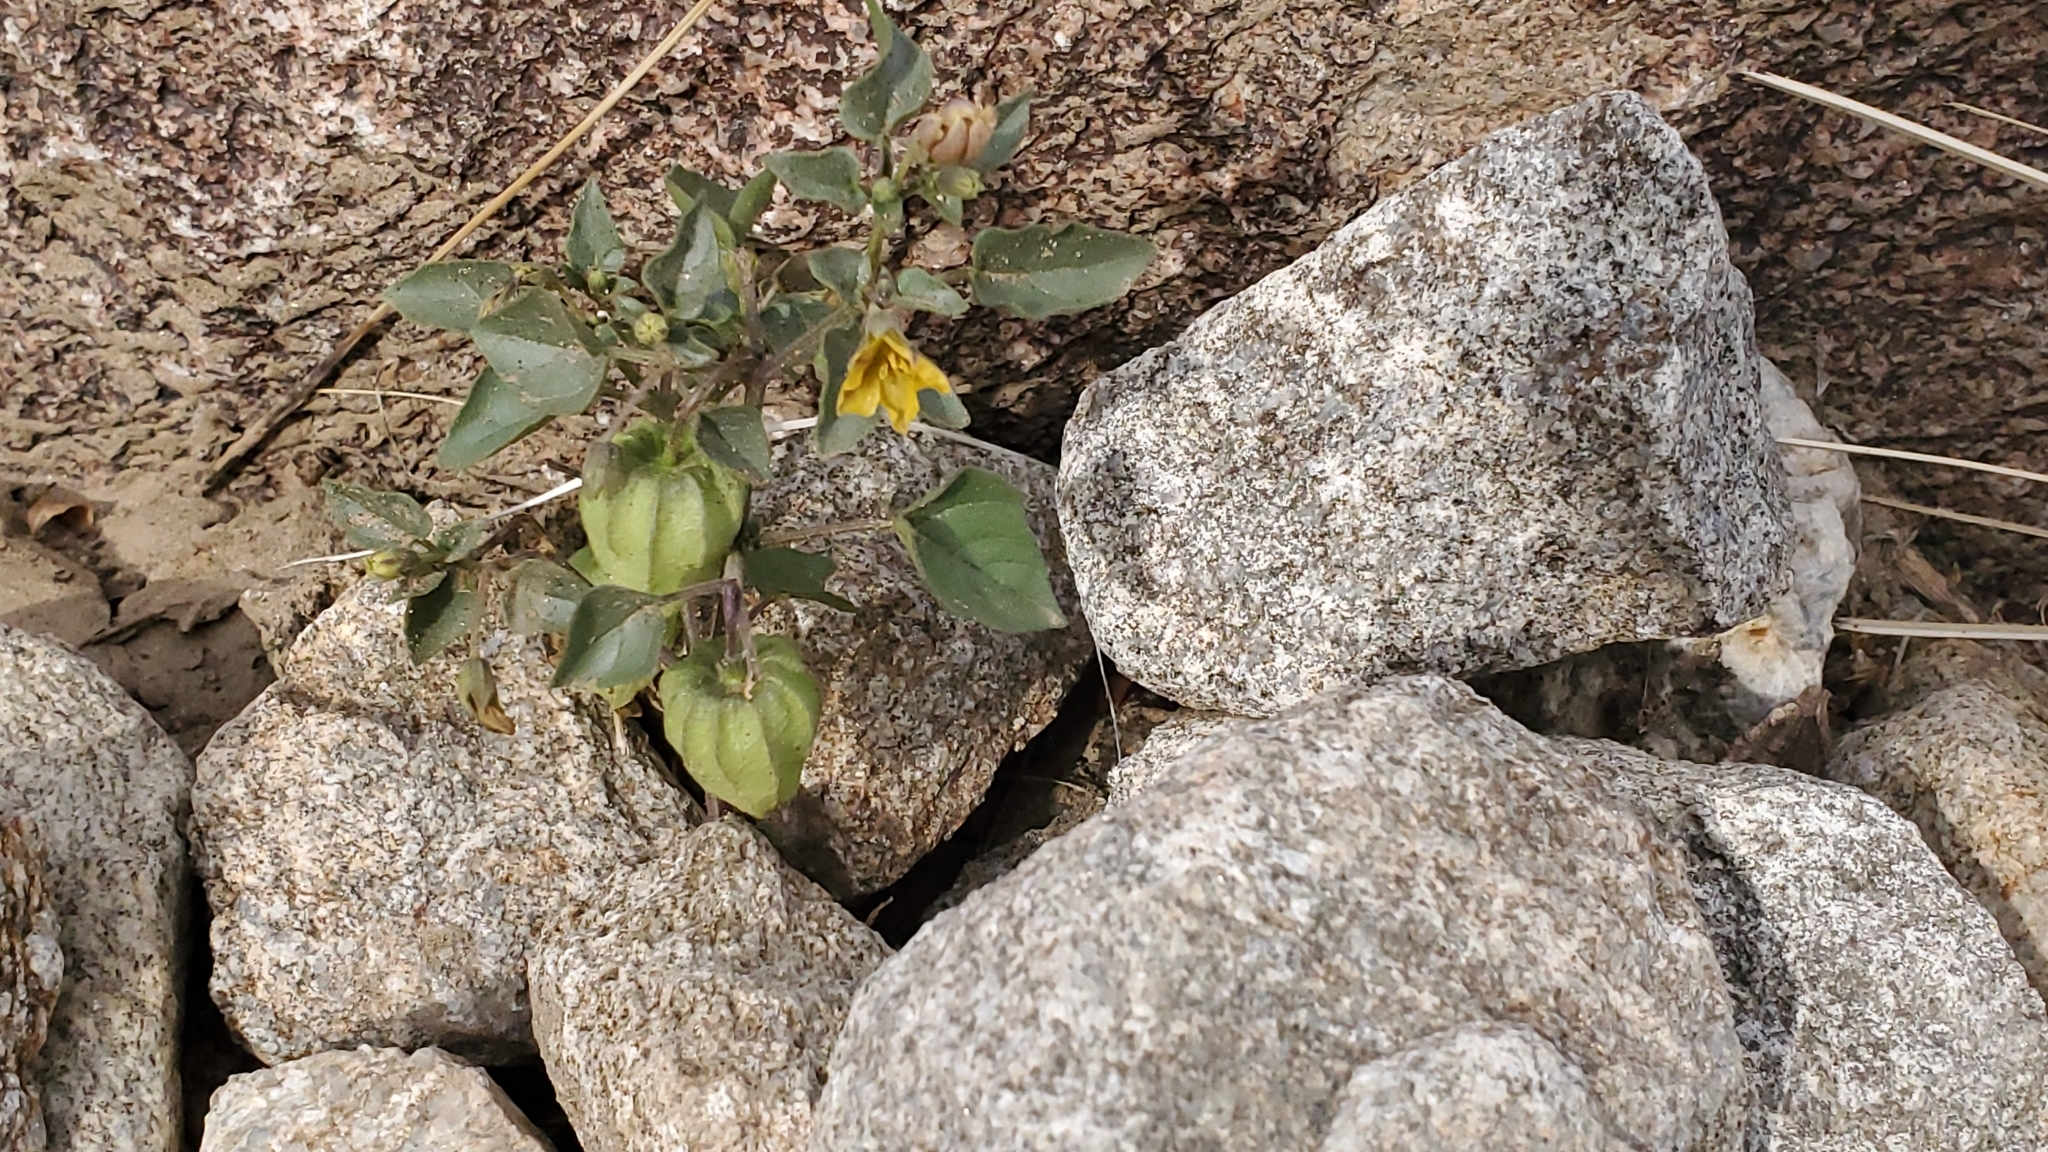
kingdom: Plantae
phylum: Tracheophyta
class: Magnoliopsida
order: Solanales
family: Solanaceae
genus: Physalis
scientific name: Physalis crassifolia
